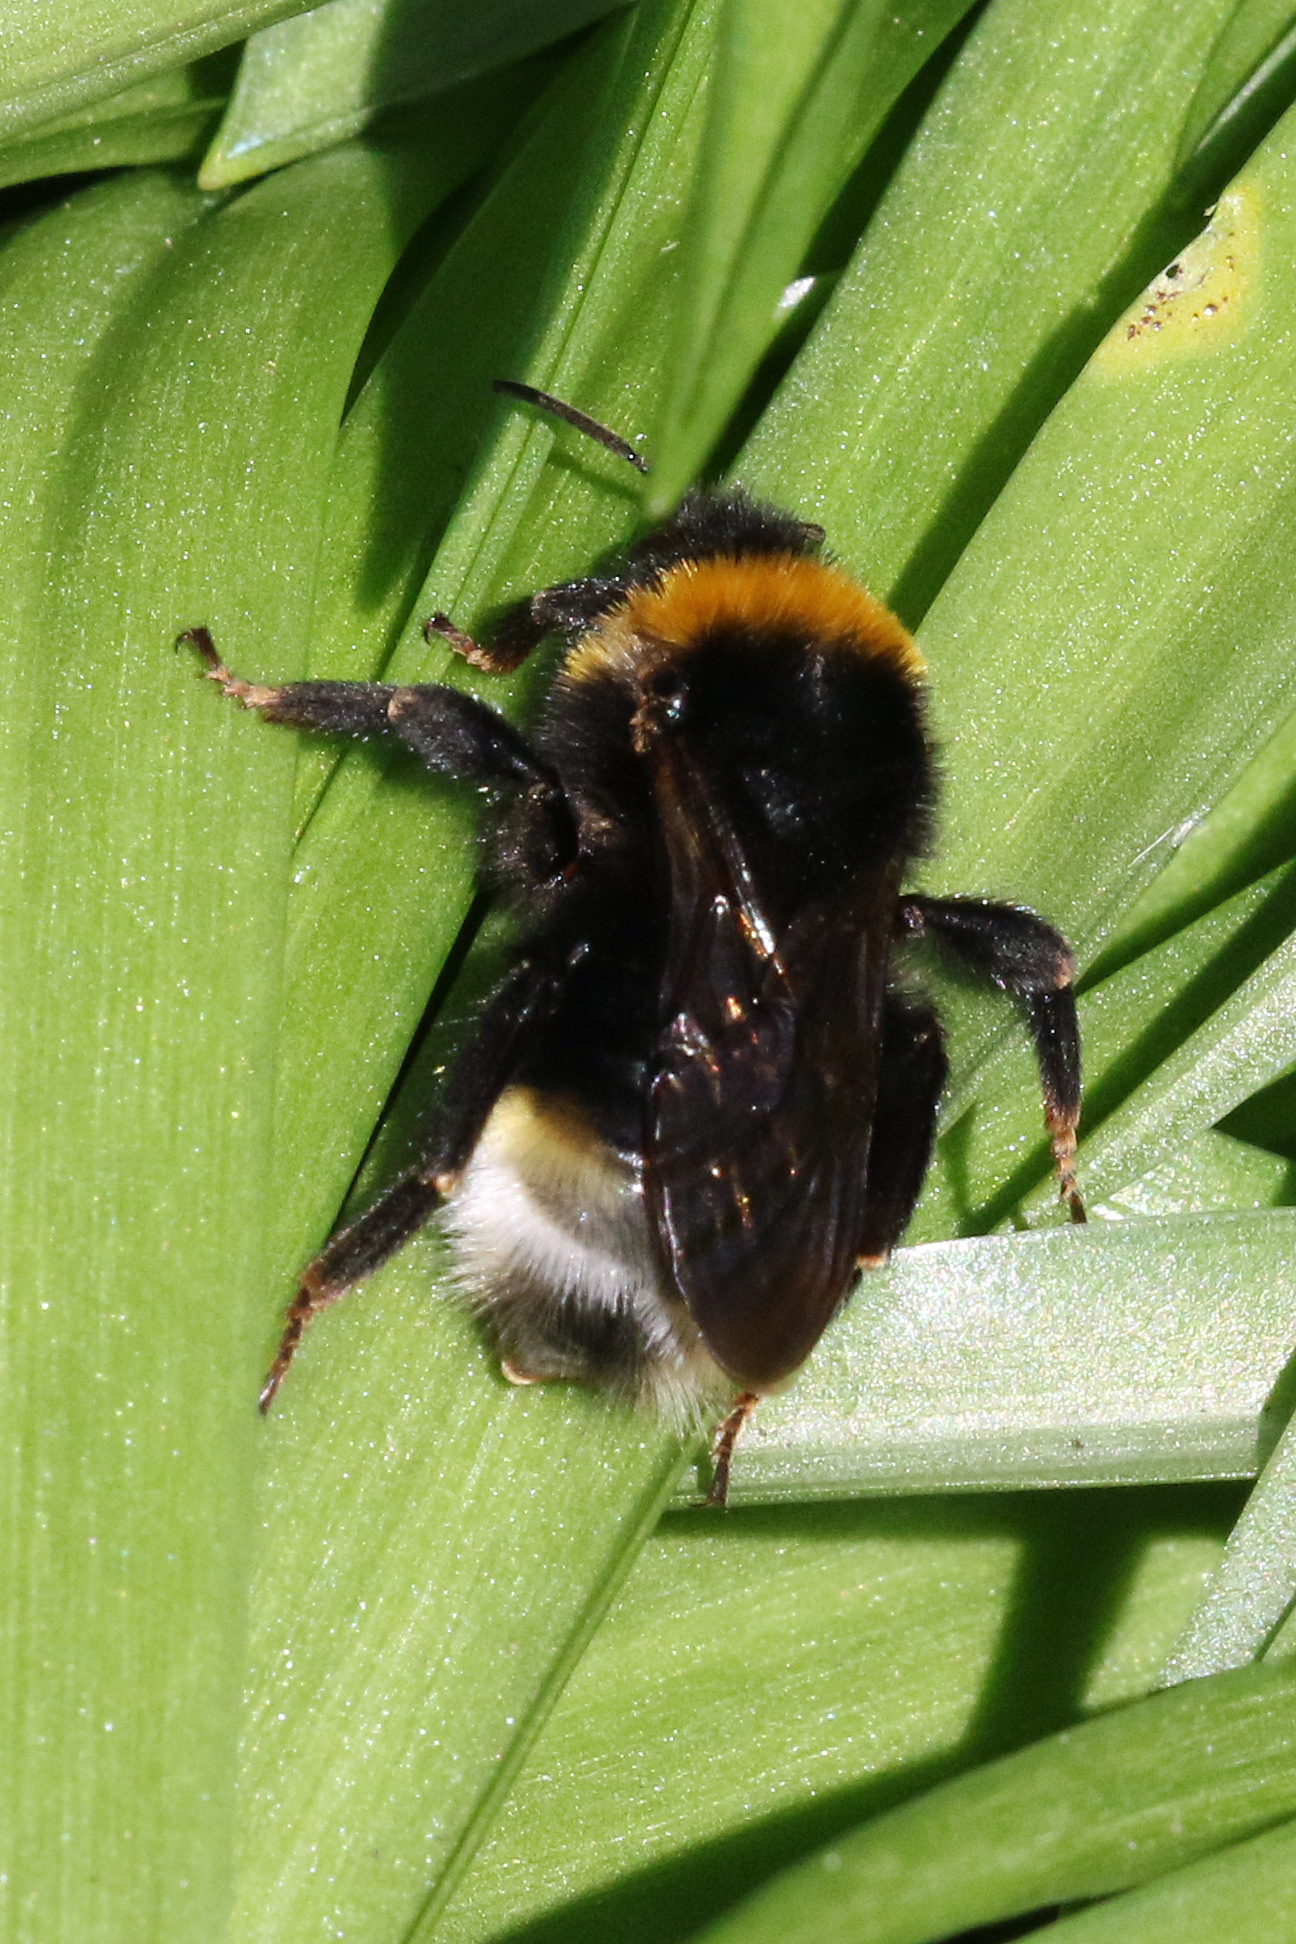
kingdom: Animalia
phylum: Arthropoda
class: Insecta
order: Hymenoptera
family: Apidae
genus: Bombus
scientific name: Bombus vestalis
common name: Vestal cuckoo bee
